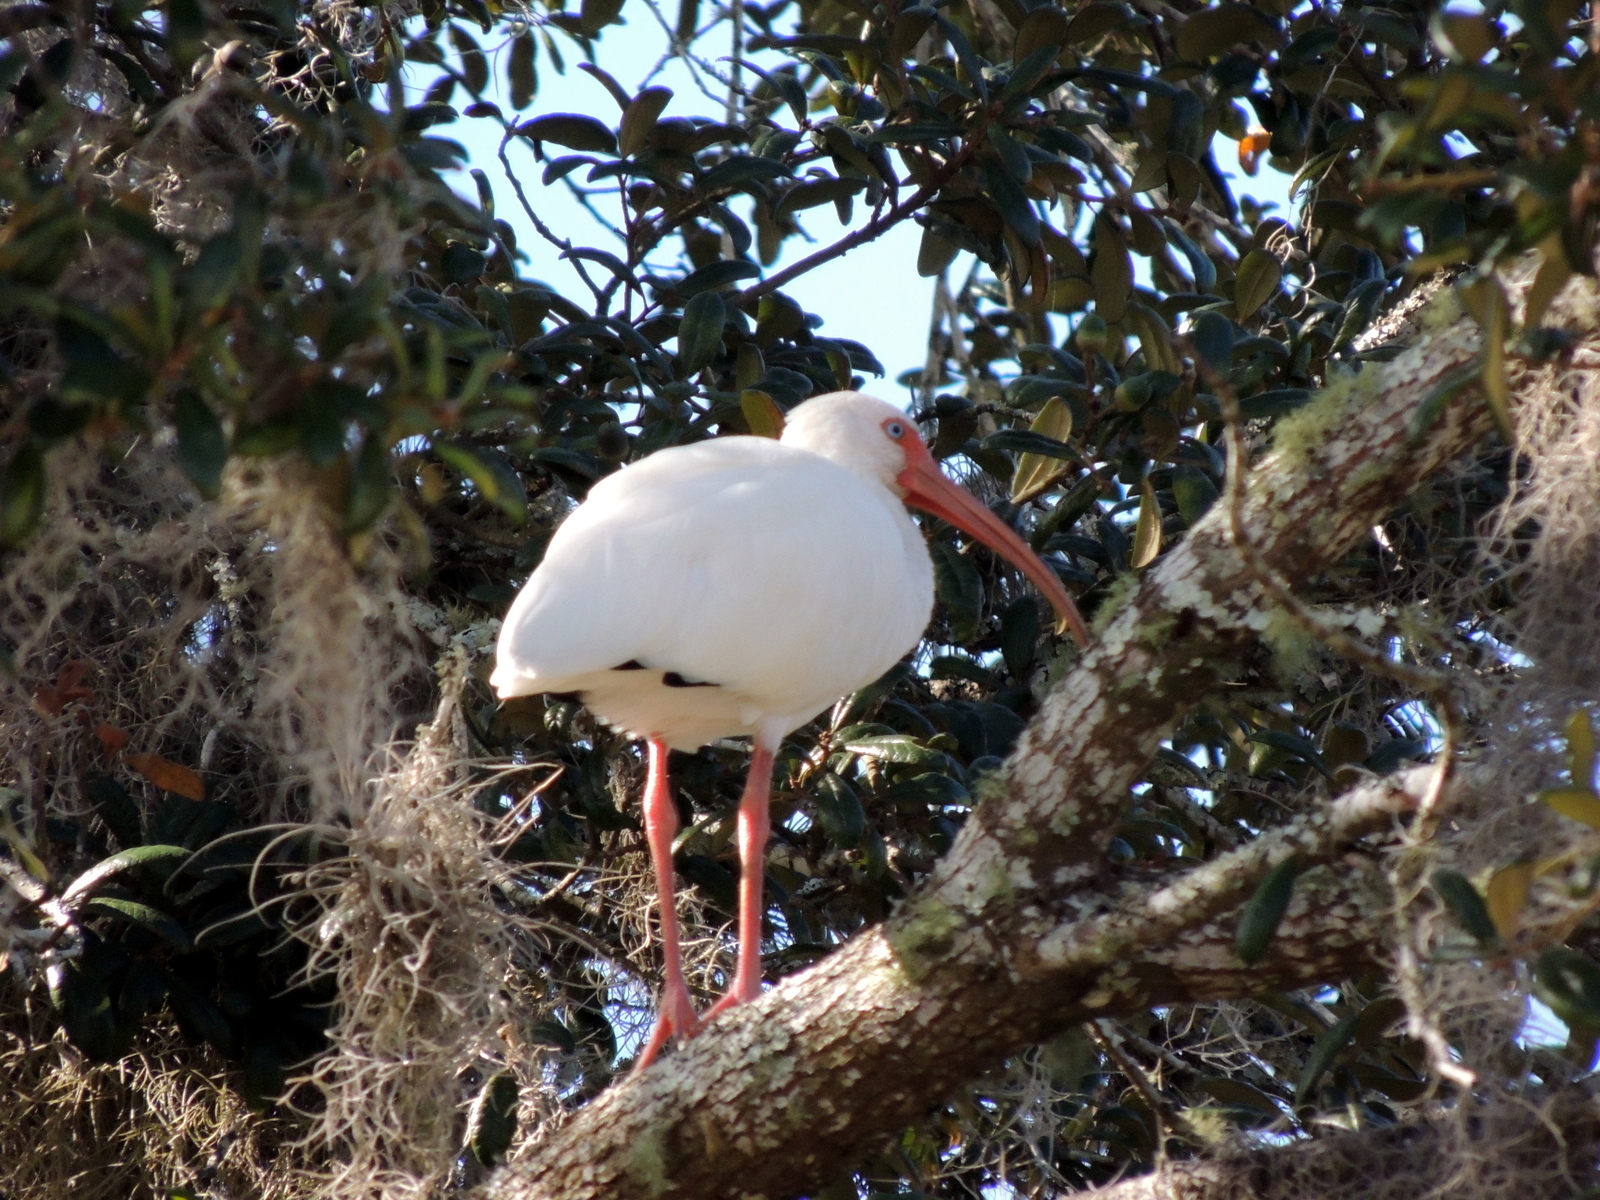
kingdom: Animalia
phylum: Chordata
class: Aves
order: Pelecaniformes
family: Threskiornithidae
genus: Eudocimus
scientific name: Eudocimus albus
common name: White ibis
